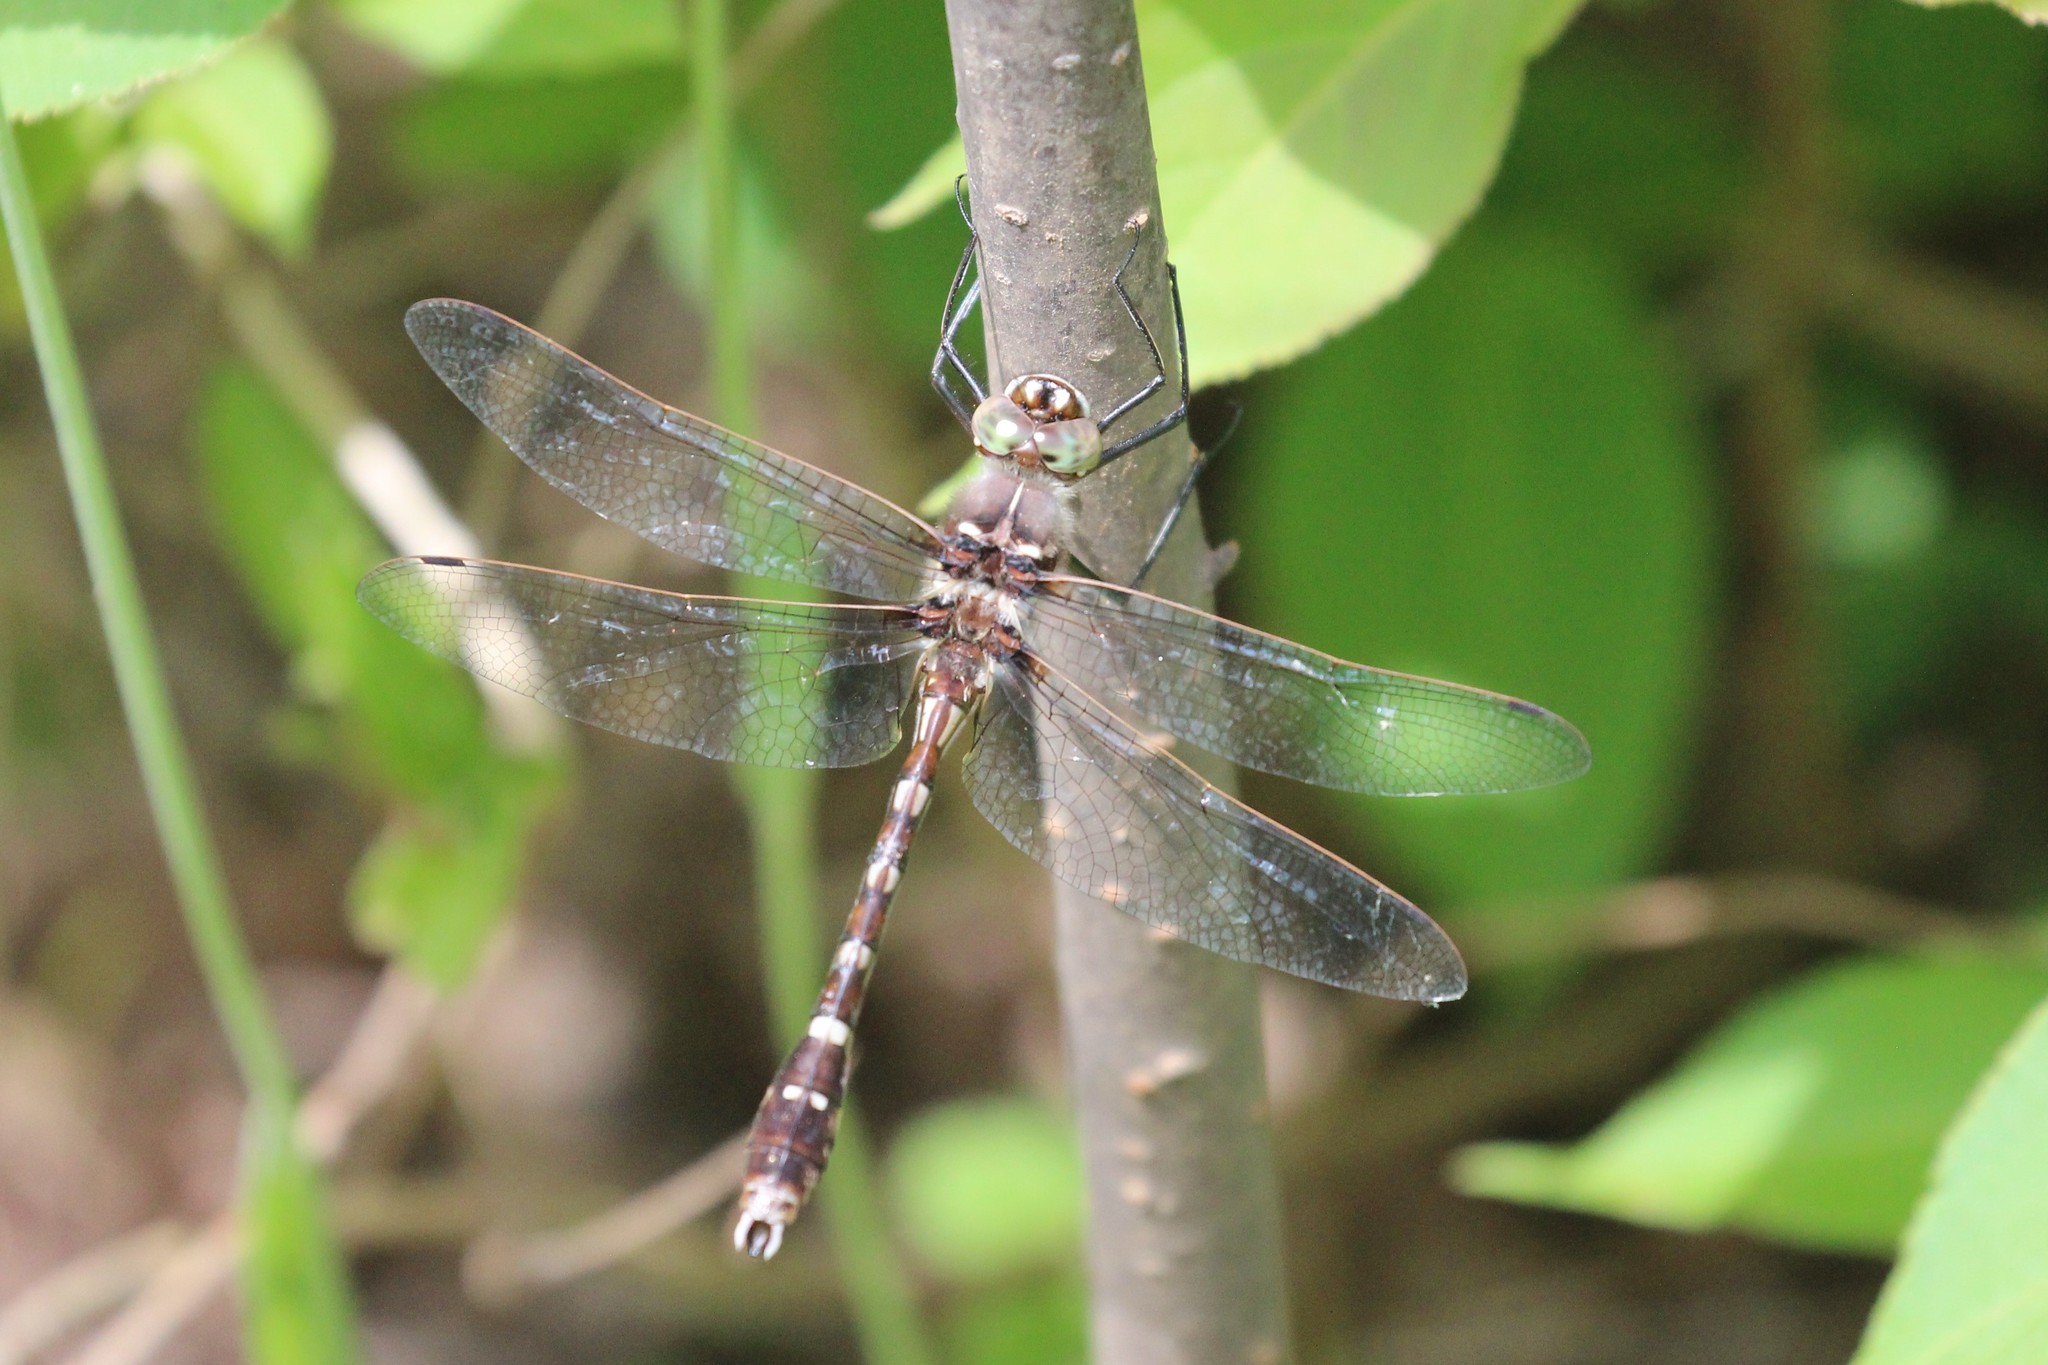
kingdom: Animalia
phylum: Arthropoda
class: Insecta
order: Odonata
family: Macromiidae
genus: Didymops
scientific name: Didymops transversa
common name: Stream cruiser
